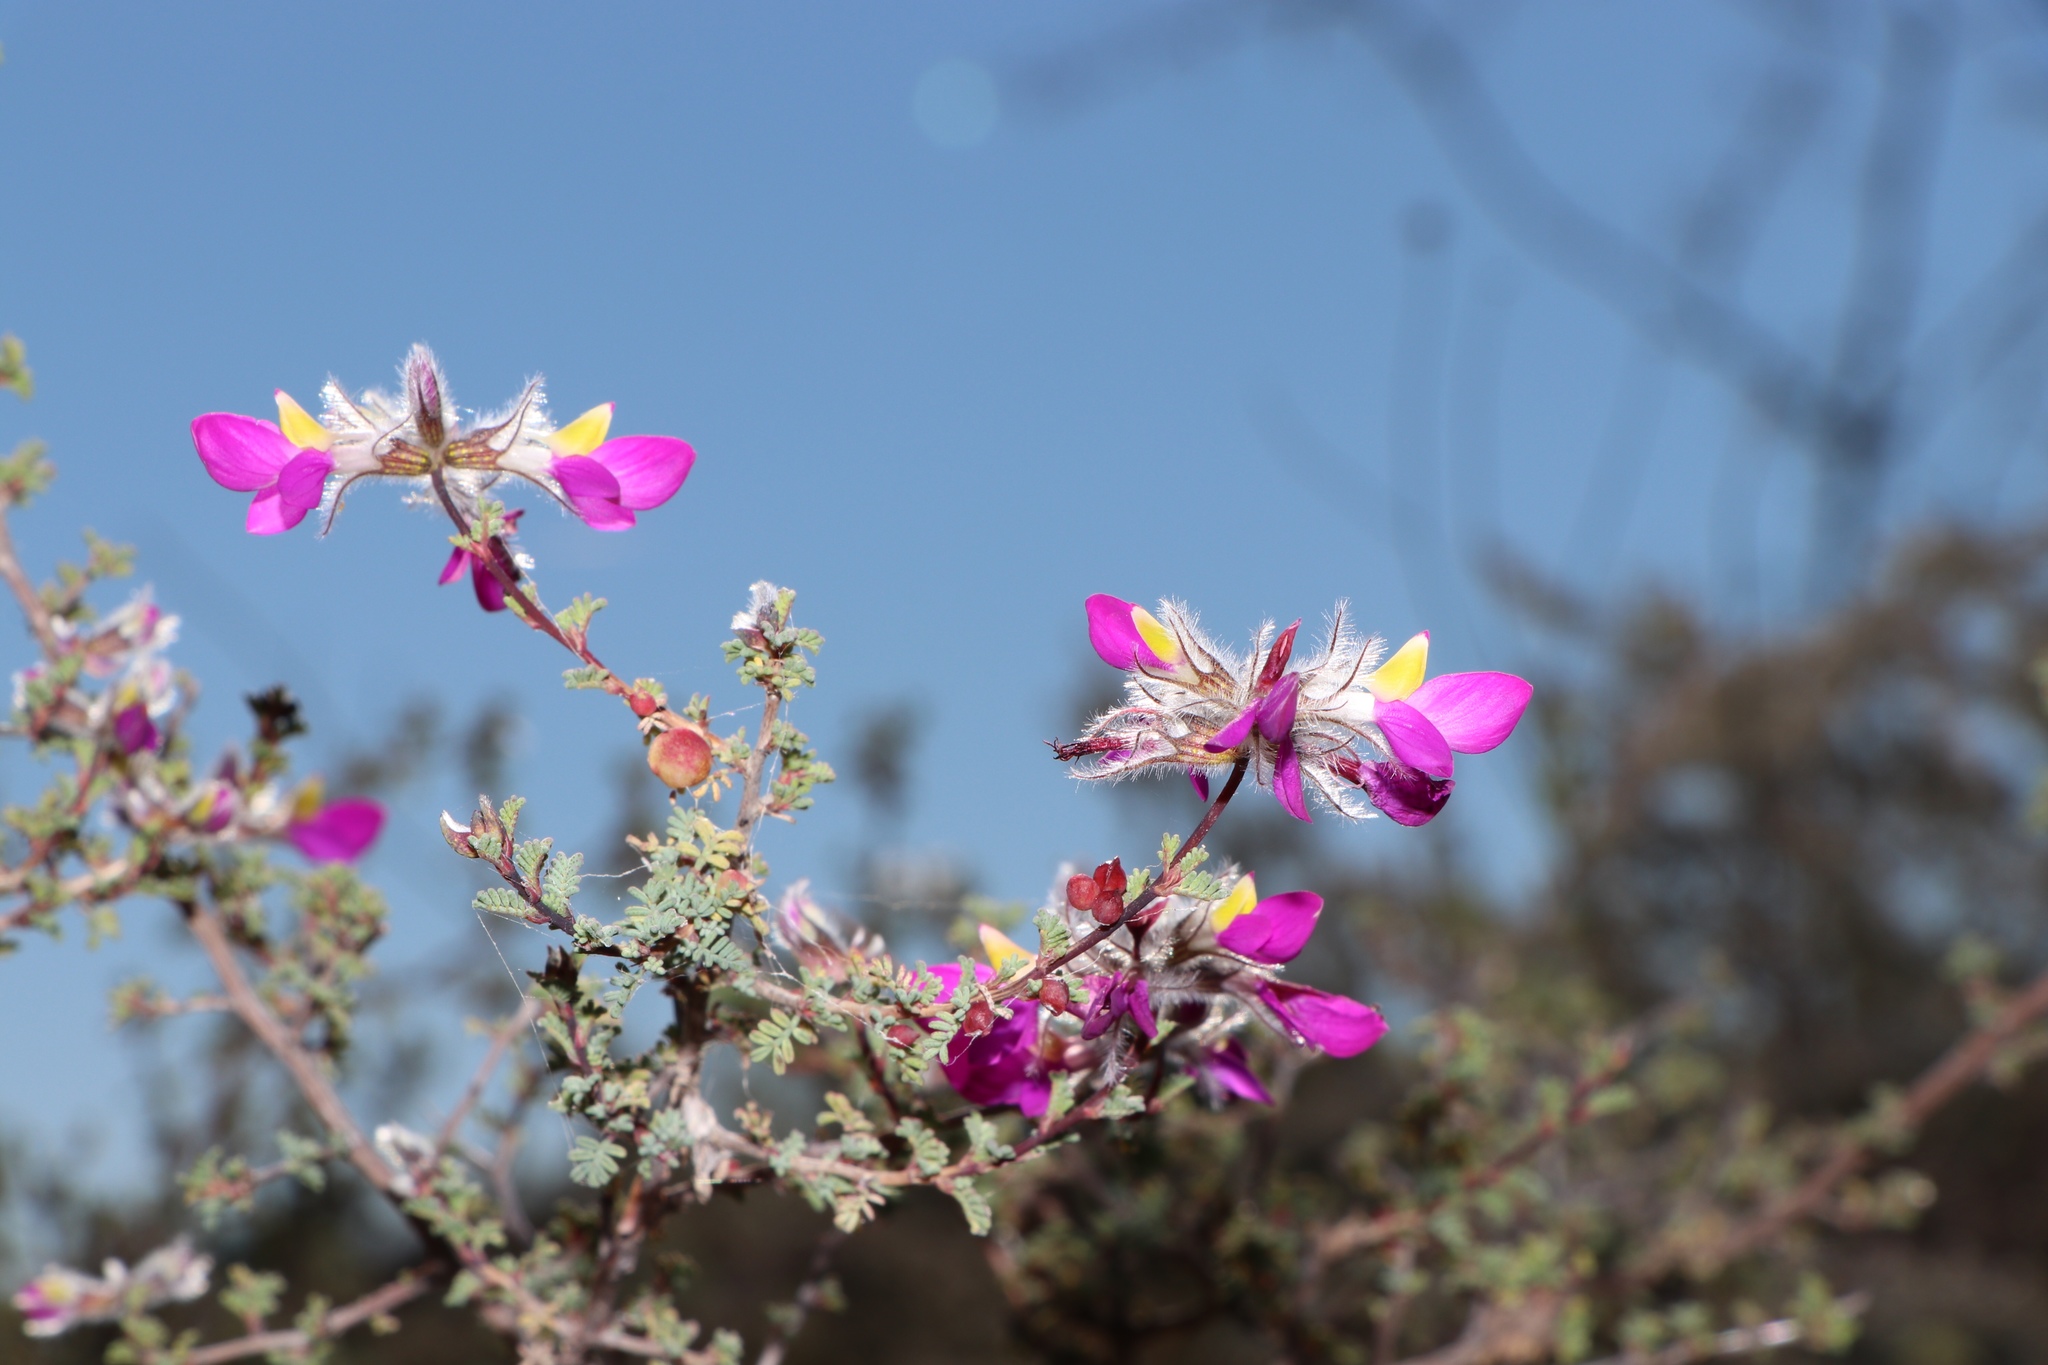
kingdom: Plantae
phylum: Tracheophyta
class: Magnoliopsida
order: Fabales
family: Fabaceae
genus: Dalea
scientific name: Dalea formosa
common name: Feather-plume dalea
